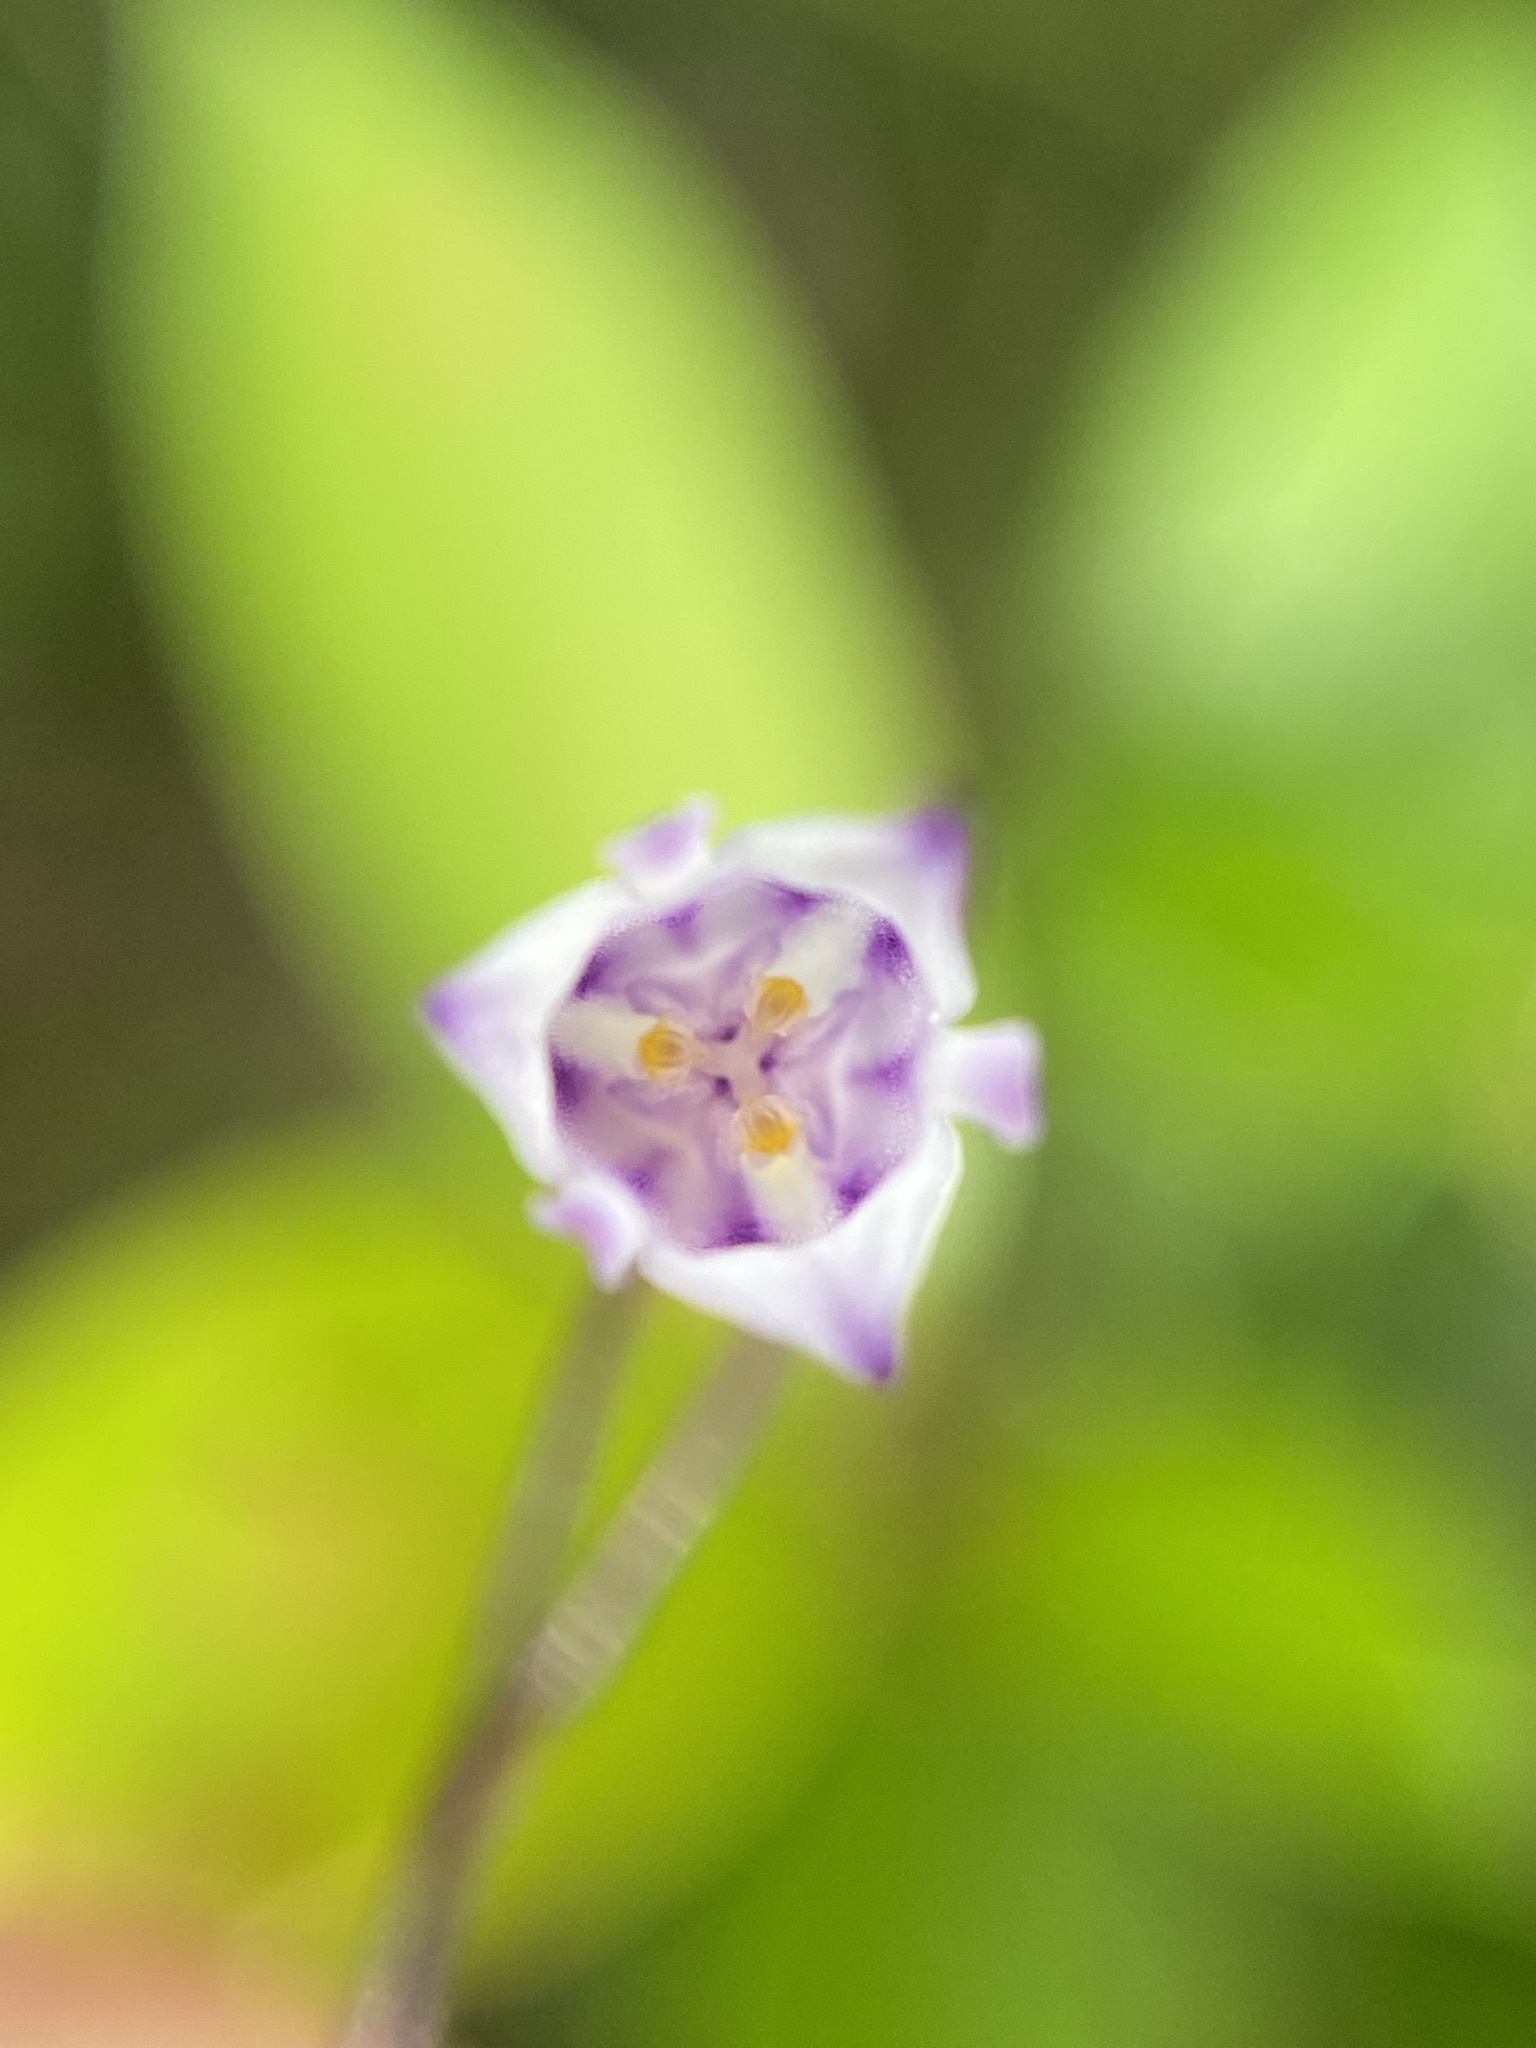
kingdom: Plantae
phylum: Tracheophyta
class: Liliopsida
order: Dioscoreales
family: Burmanniaceae
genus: Apteria
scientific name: Apteria aphylla
